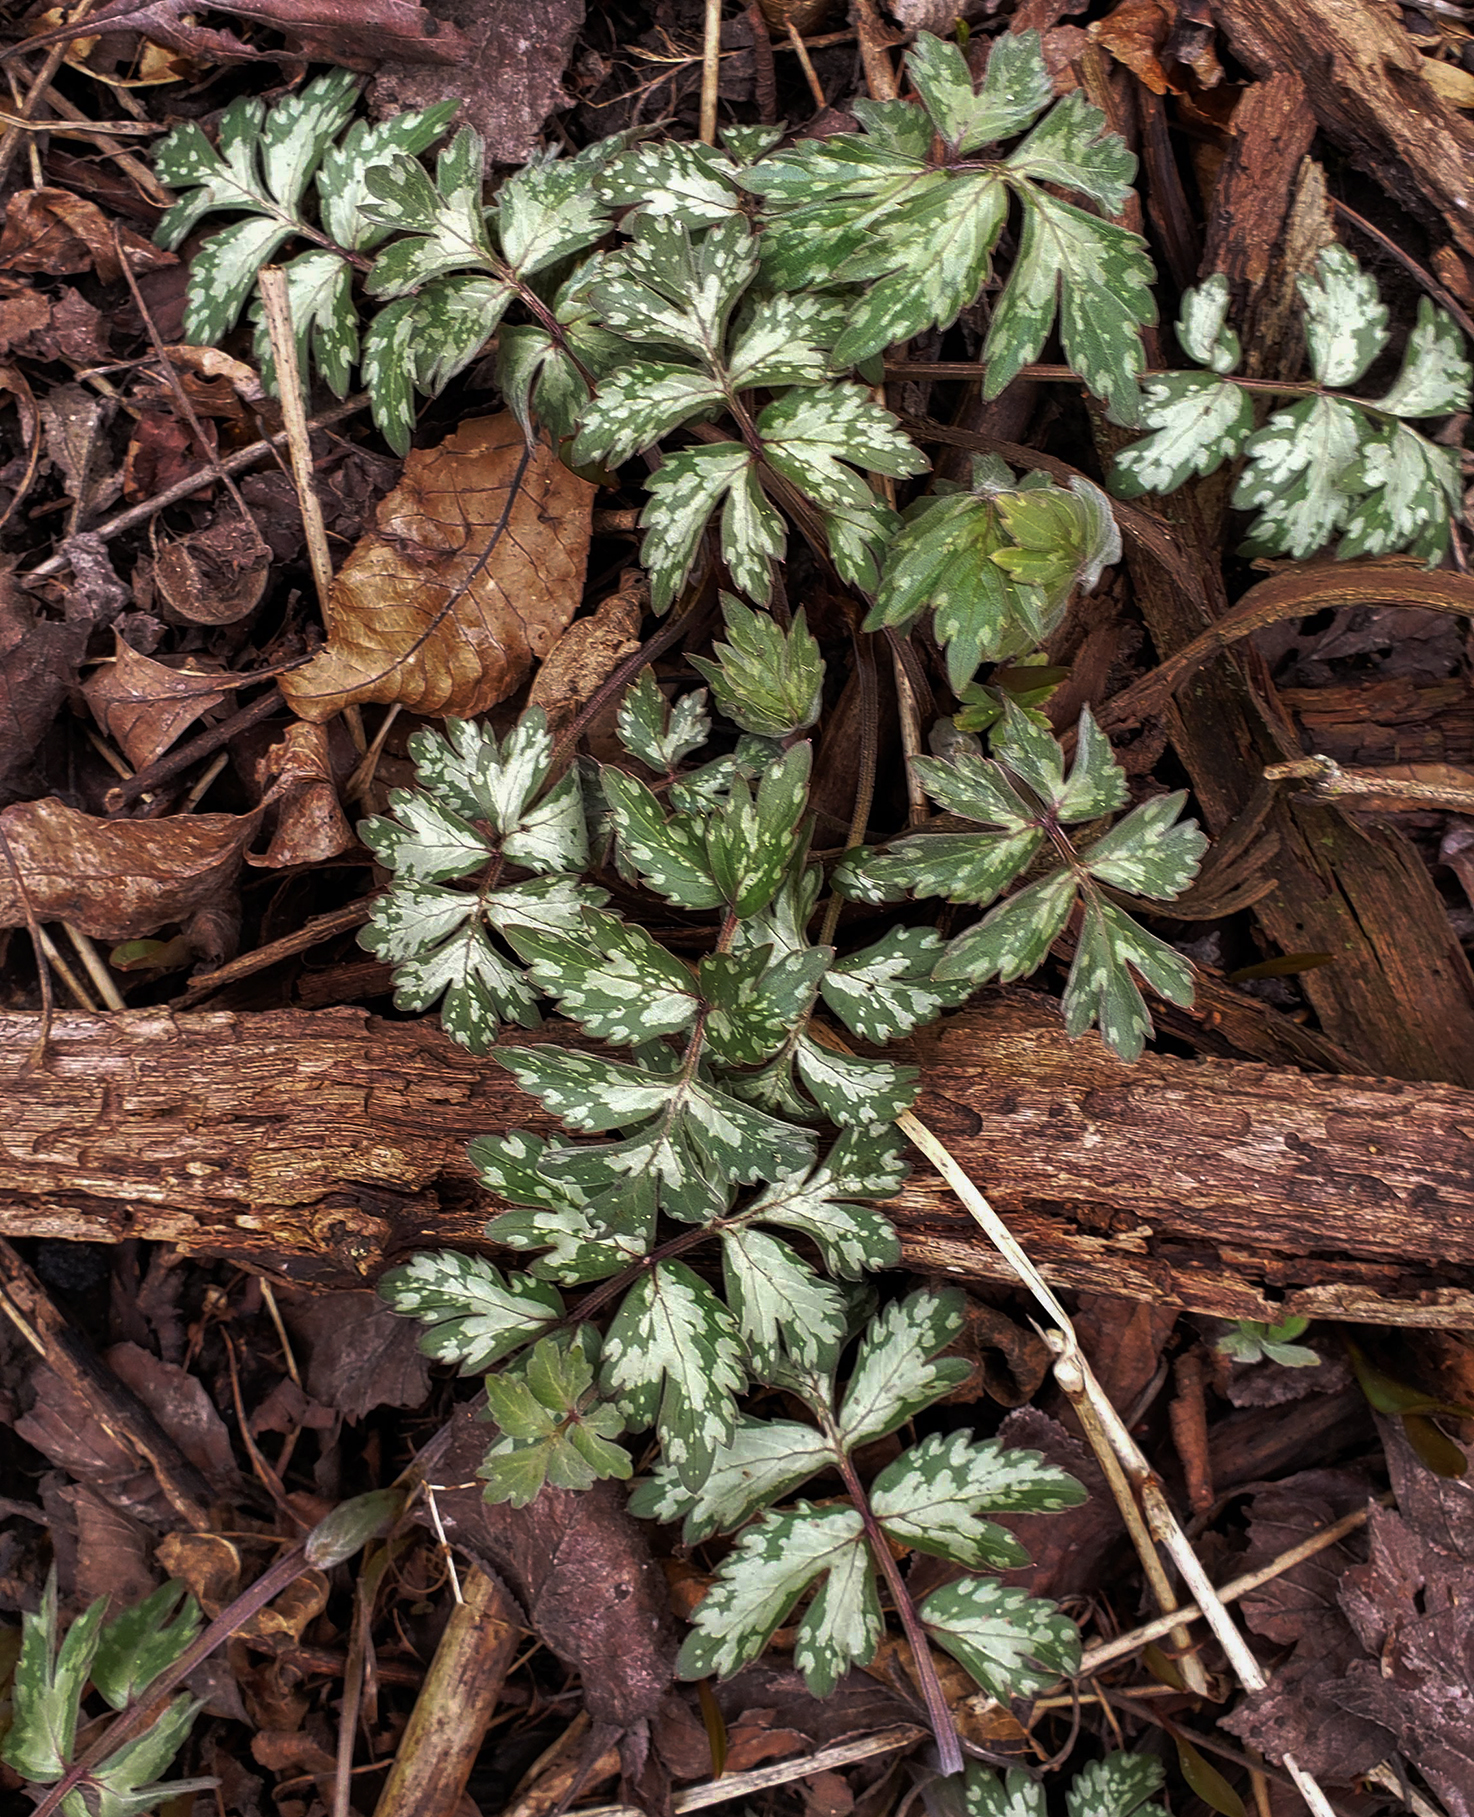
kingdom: Plantae
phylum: Tracheophyta
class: Magnoliopsida
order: Boraginales
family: Hydrophyllaceae
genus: Hydrophyllum
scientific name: Hydrophyllum virginianum
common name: Virginia waterleaf
